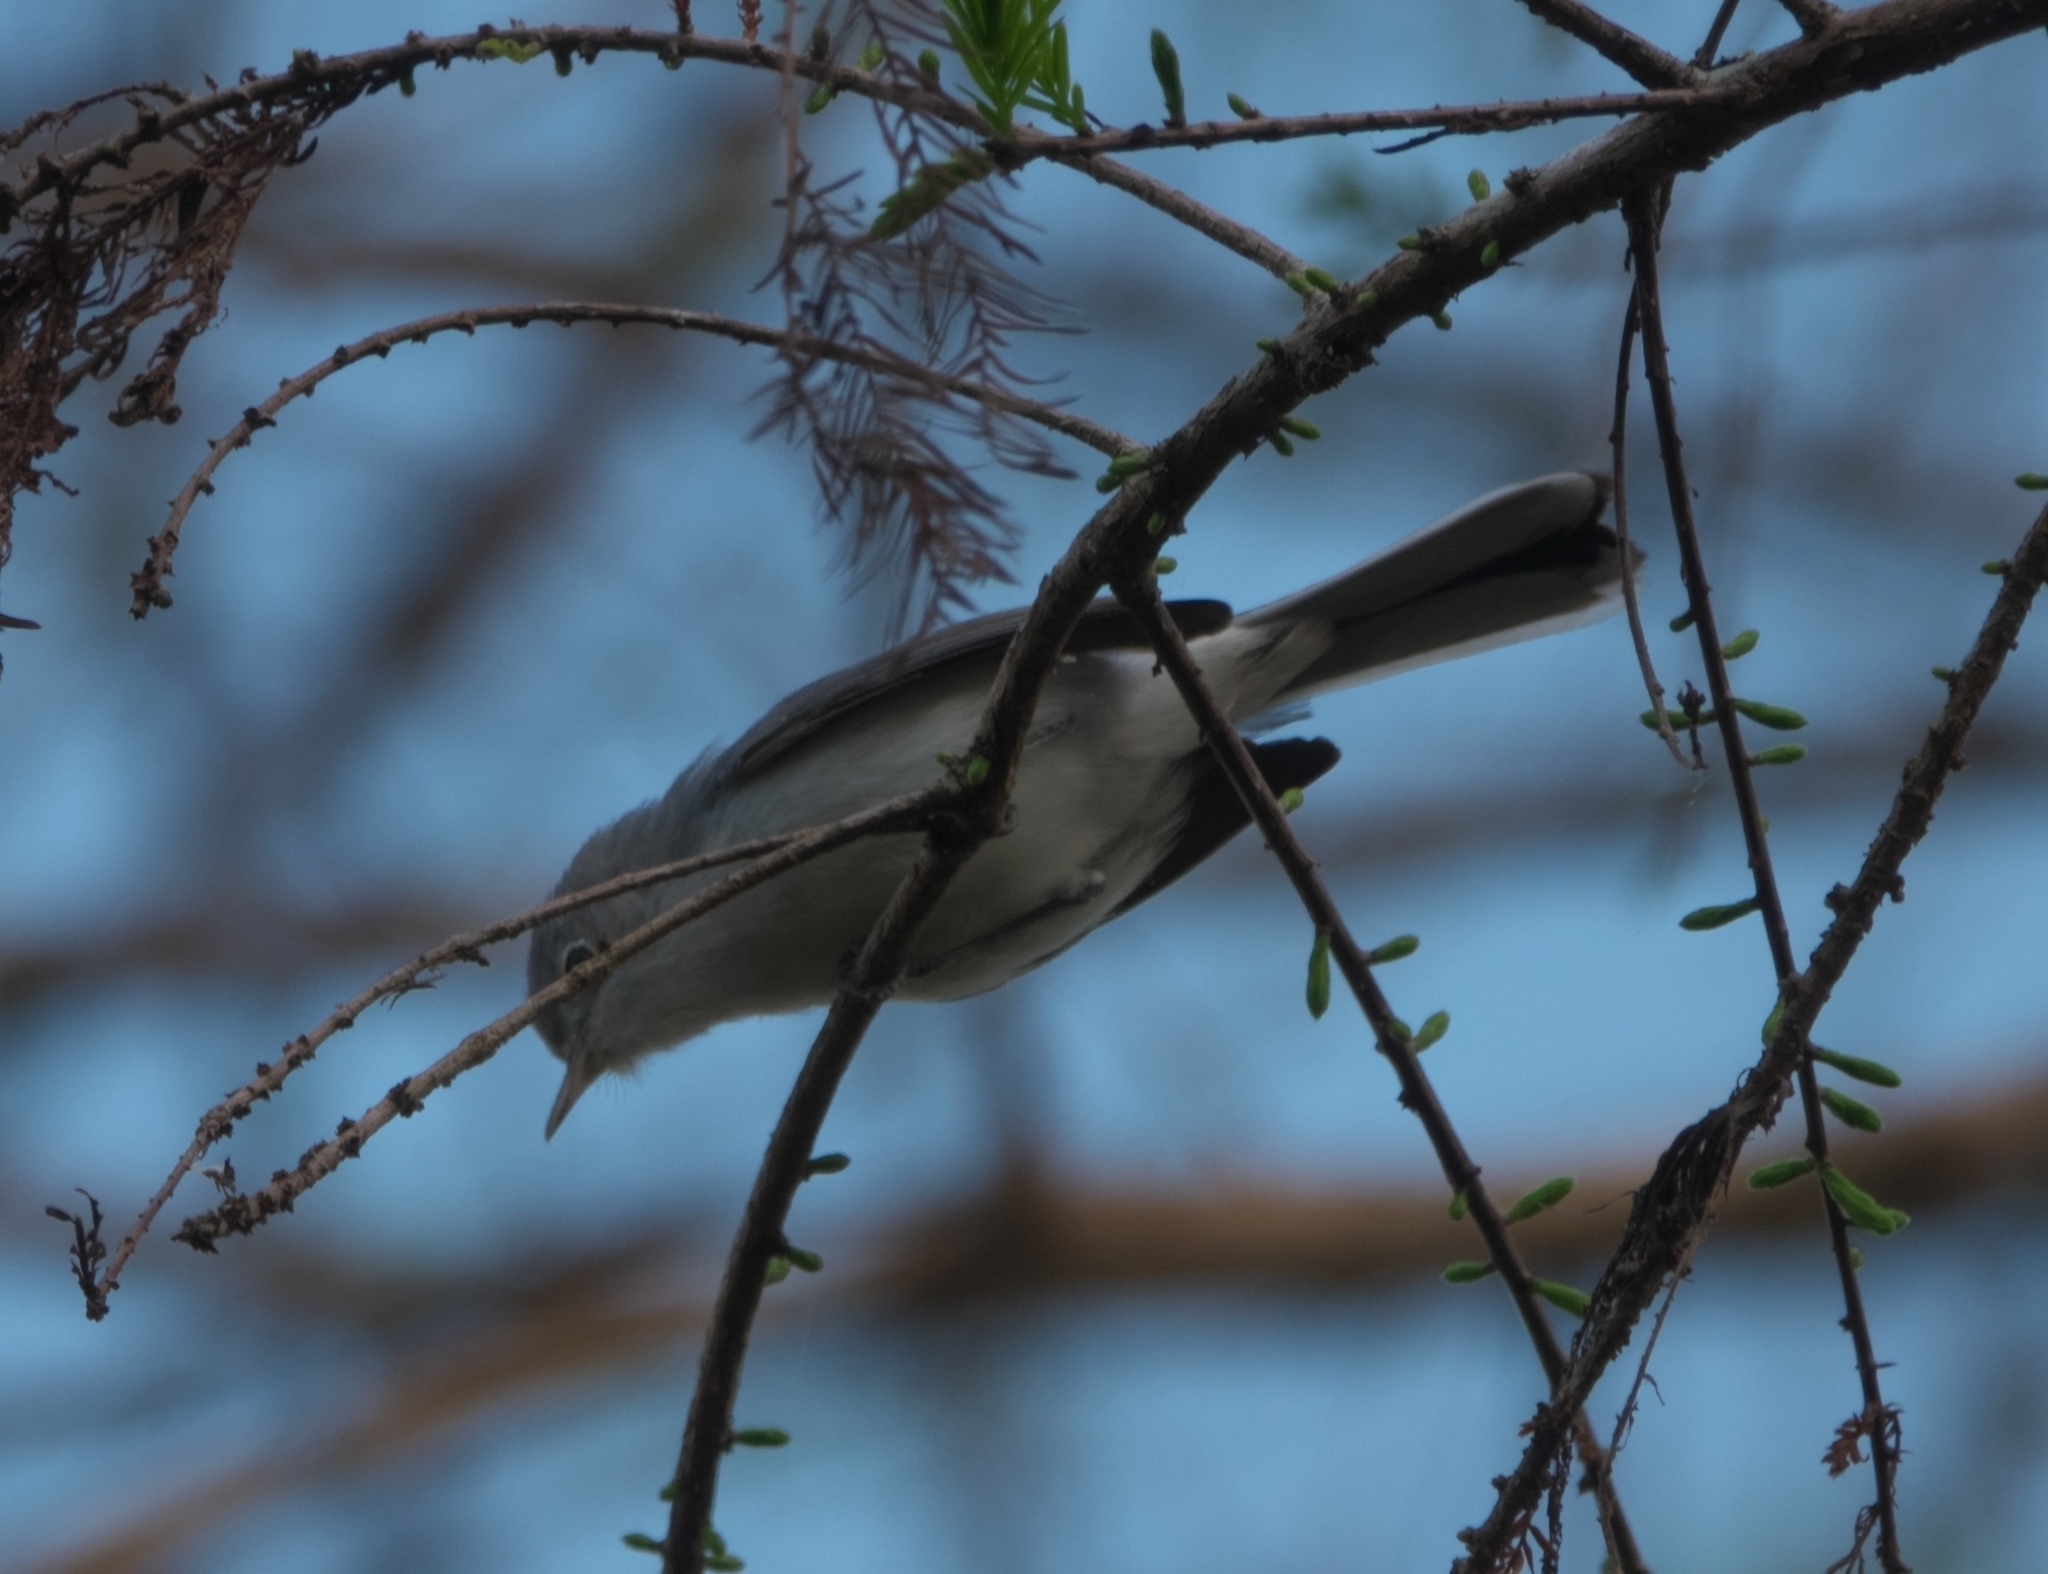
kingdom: Animalia
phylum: Chordata
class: Aves
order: Passeriformes
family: Polioptilidae
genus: Polioptila
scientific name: Polioptila caerulea
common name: Blue-gray gnatcatcher
